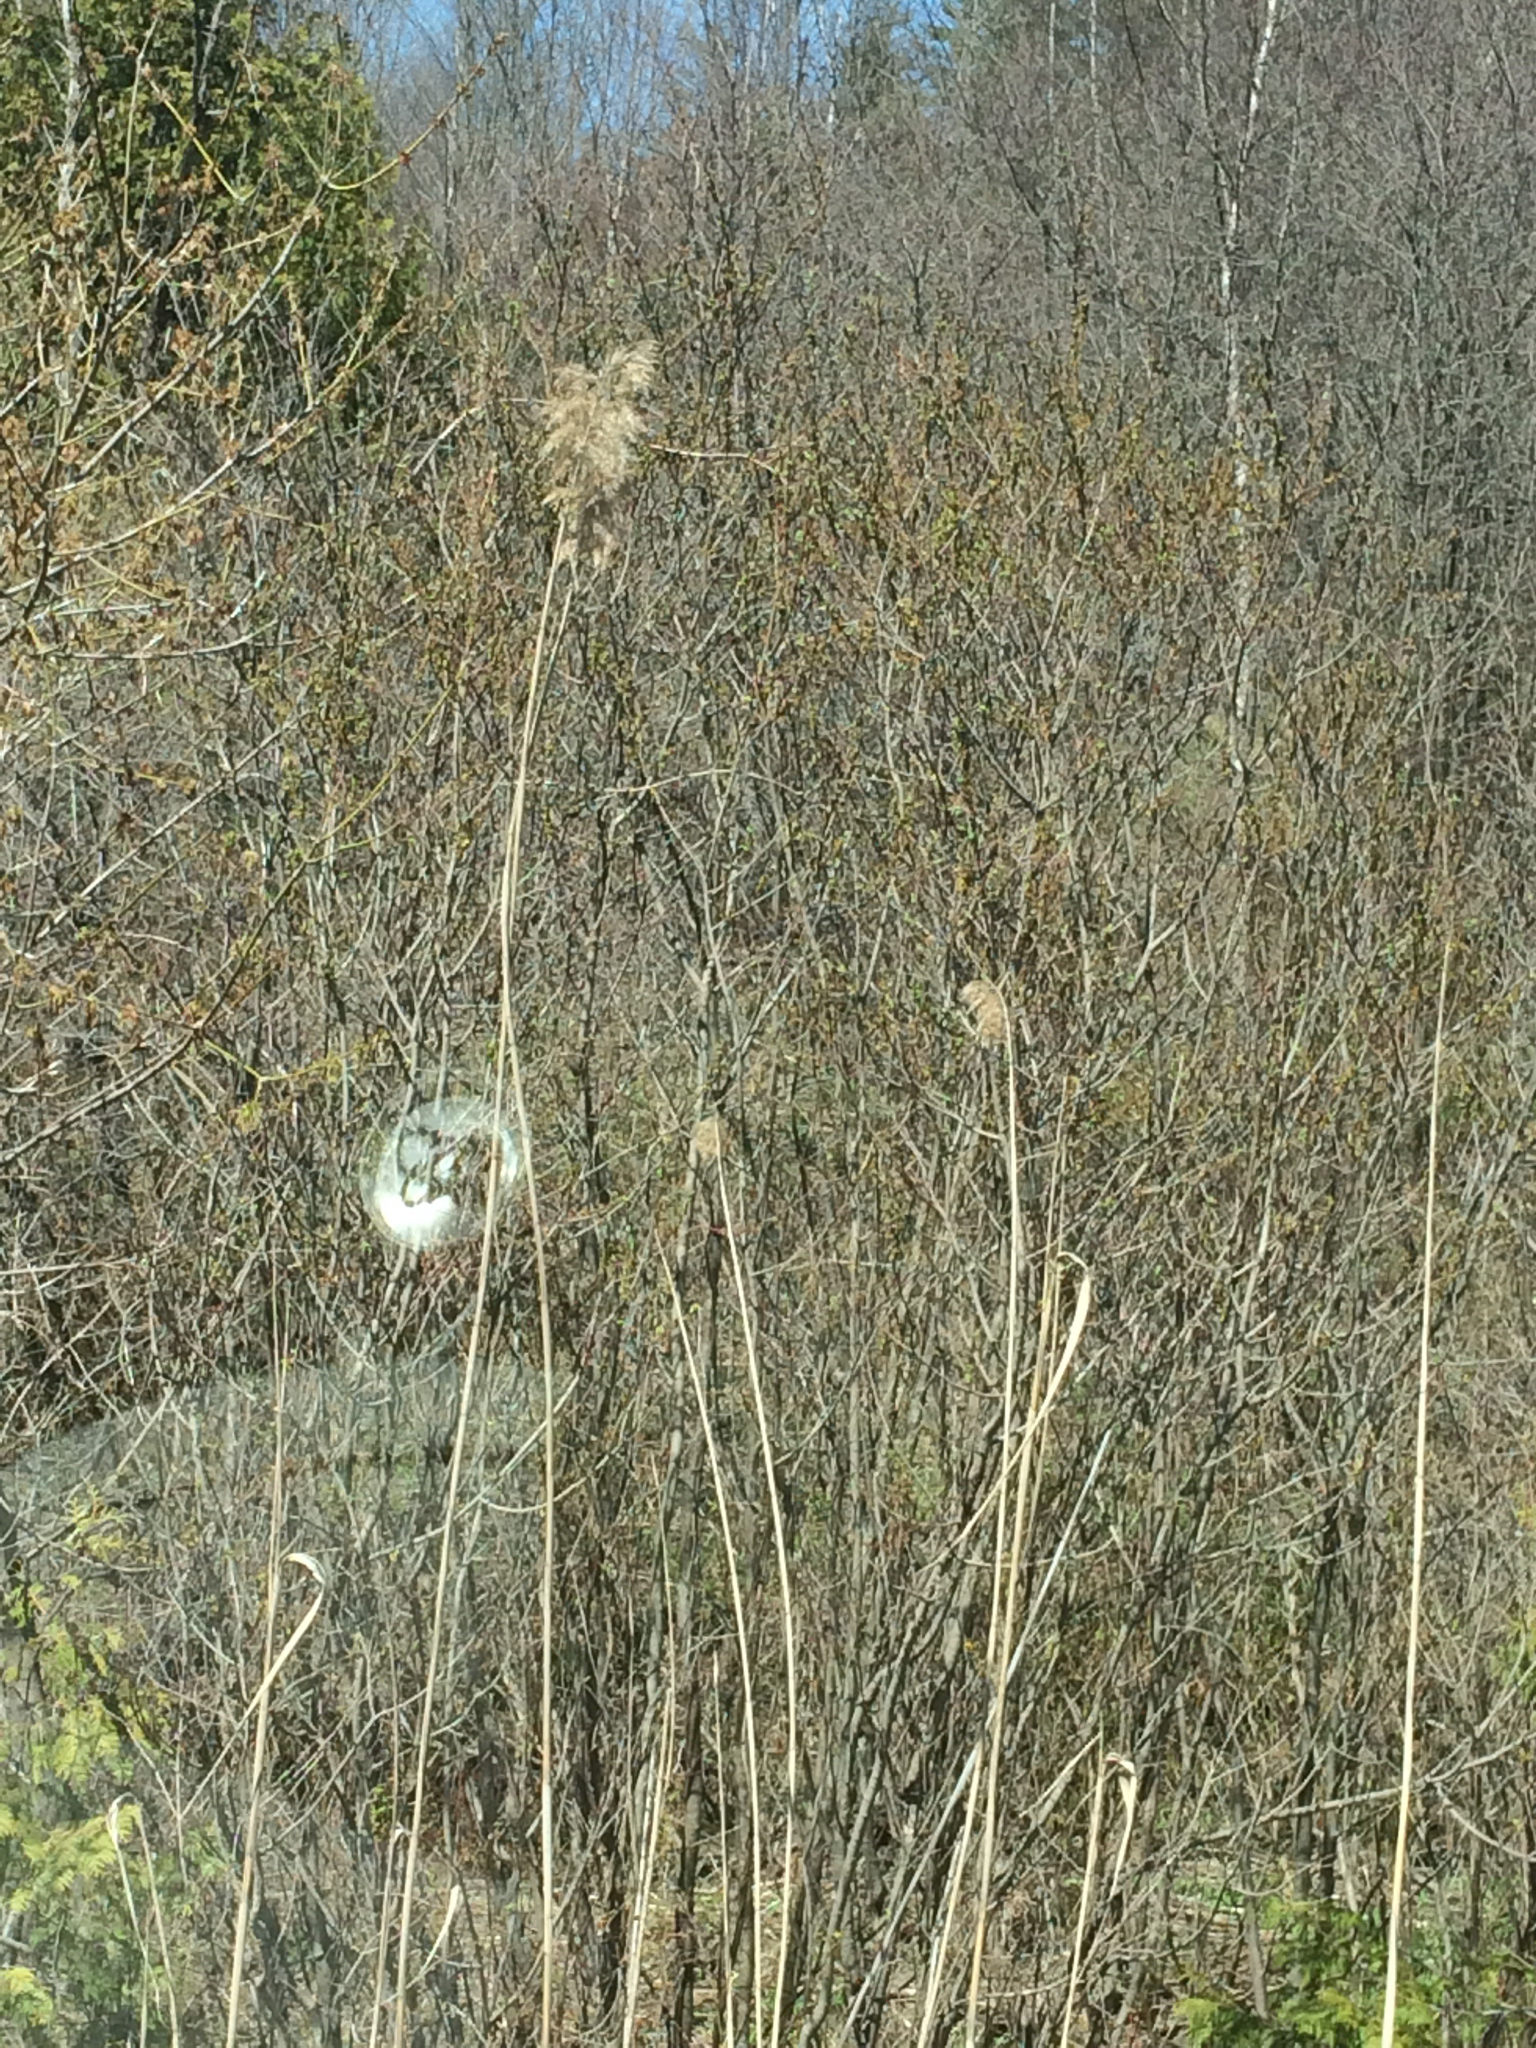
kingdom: Plantae
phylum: Tracheophyta
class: Liliopsida
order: Poales
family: Poaceae
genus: Phragmites
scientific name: Phragmites australis
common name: Common reed
